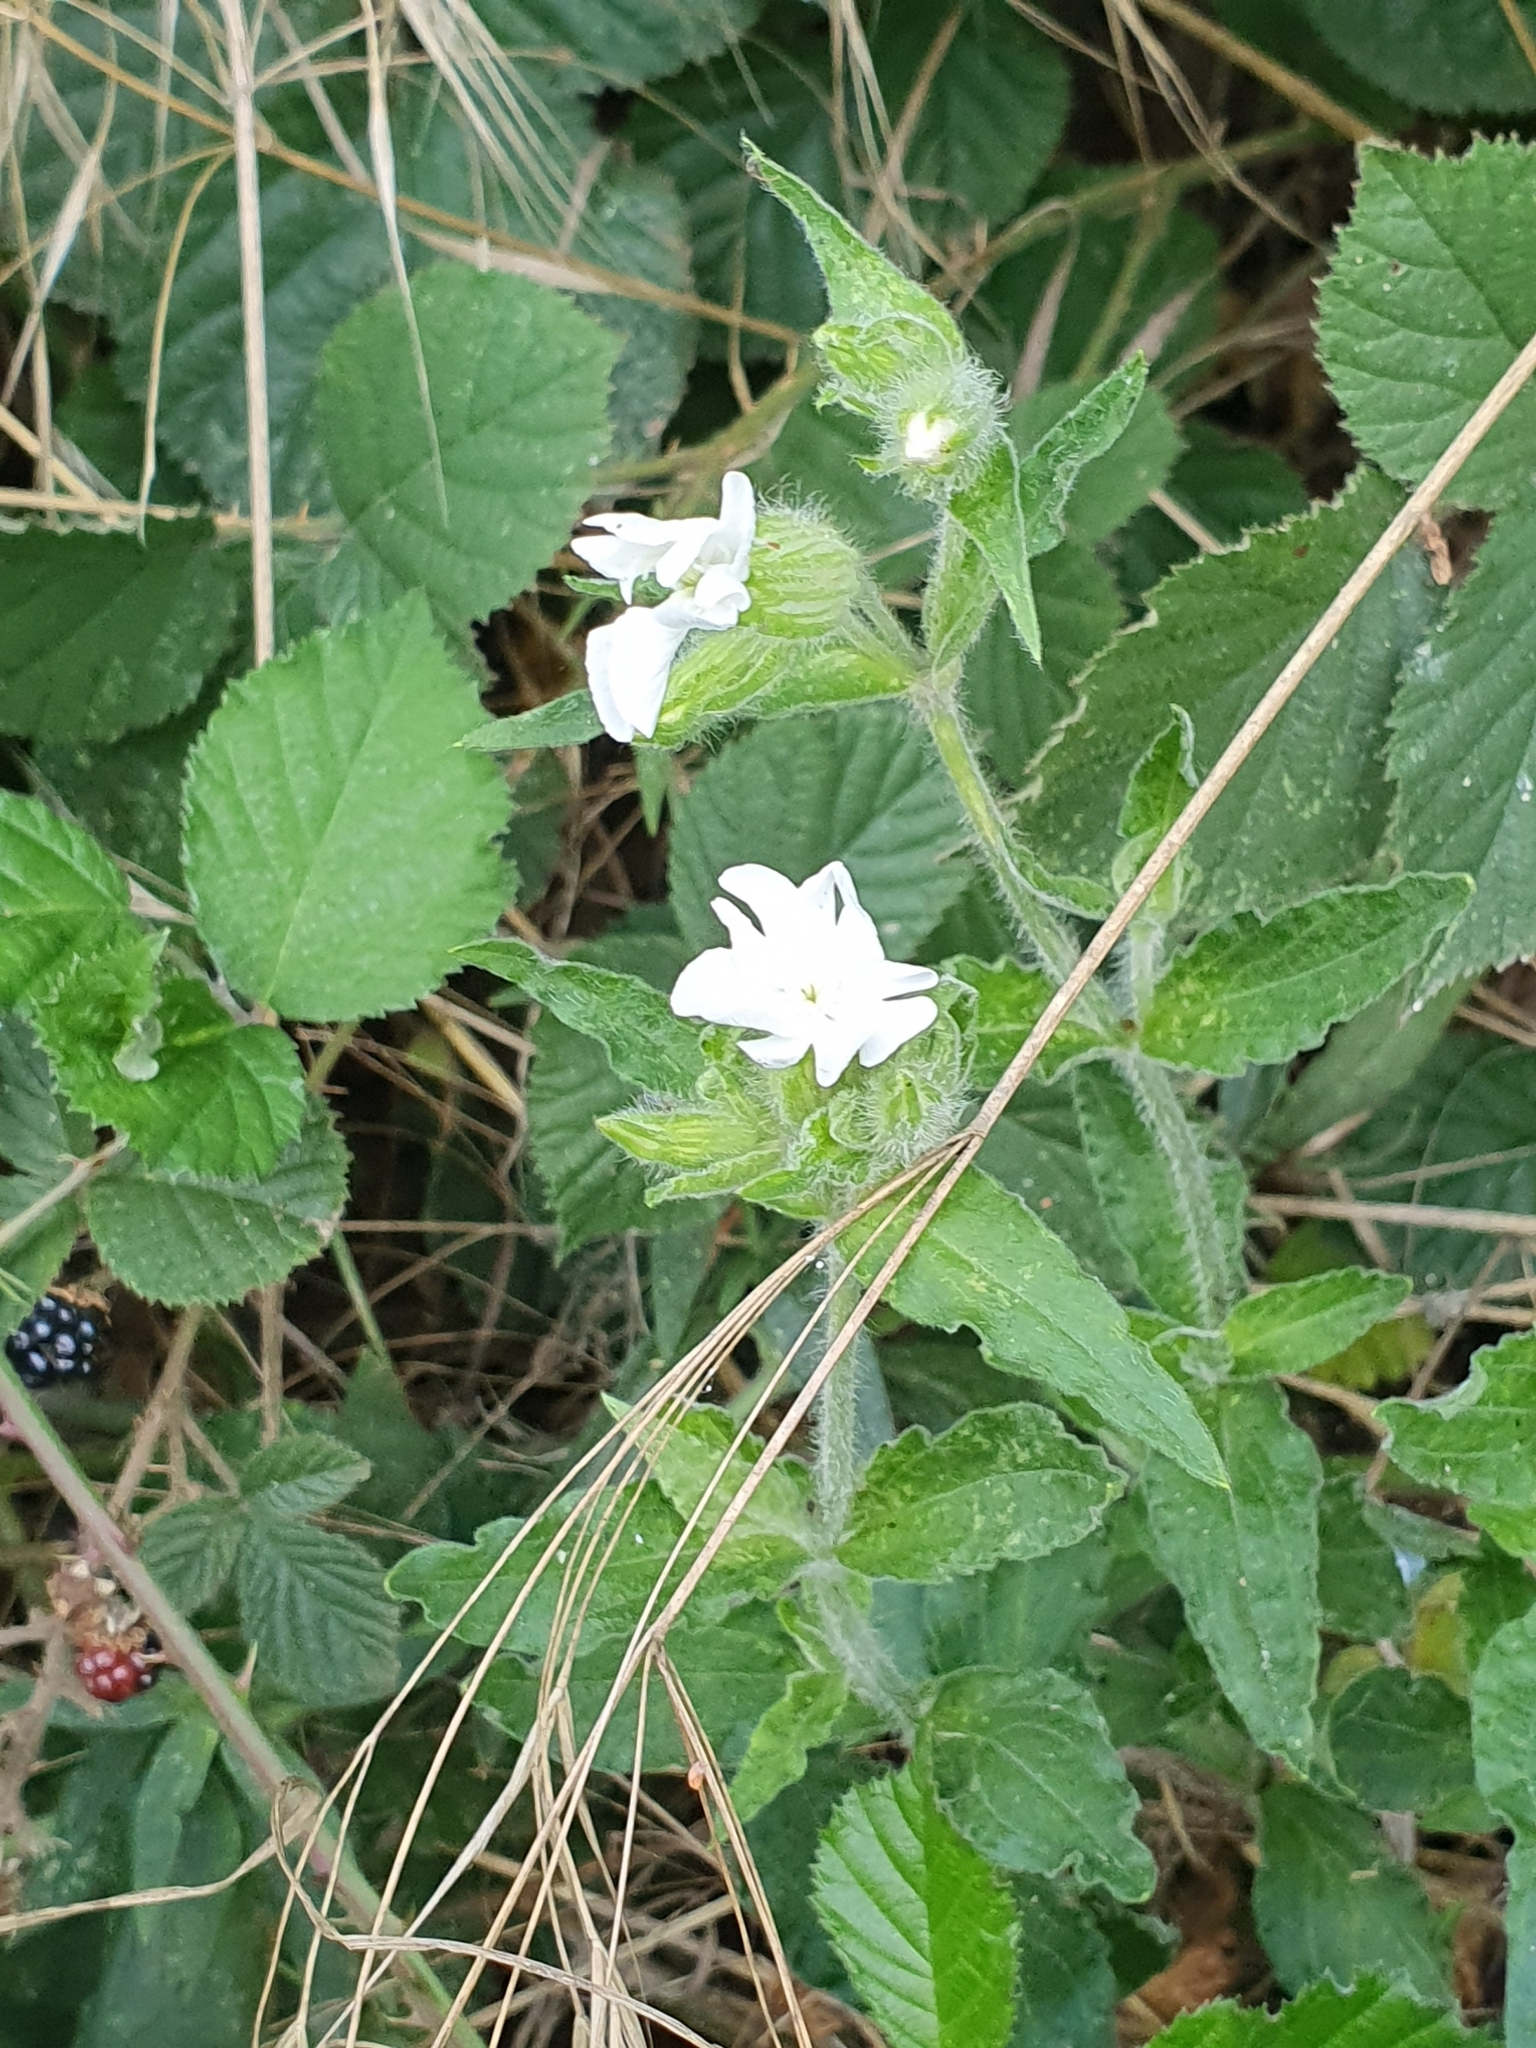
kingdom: Plantae
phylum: Tracheophyta
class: Magnoliopsida
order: Caryophyllales
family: Caryophyllaceae
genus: Silene
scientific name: Silene latifolia
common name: White campion
